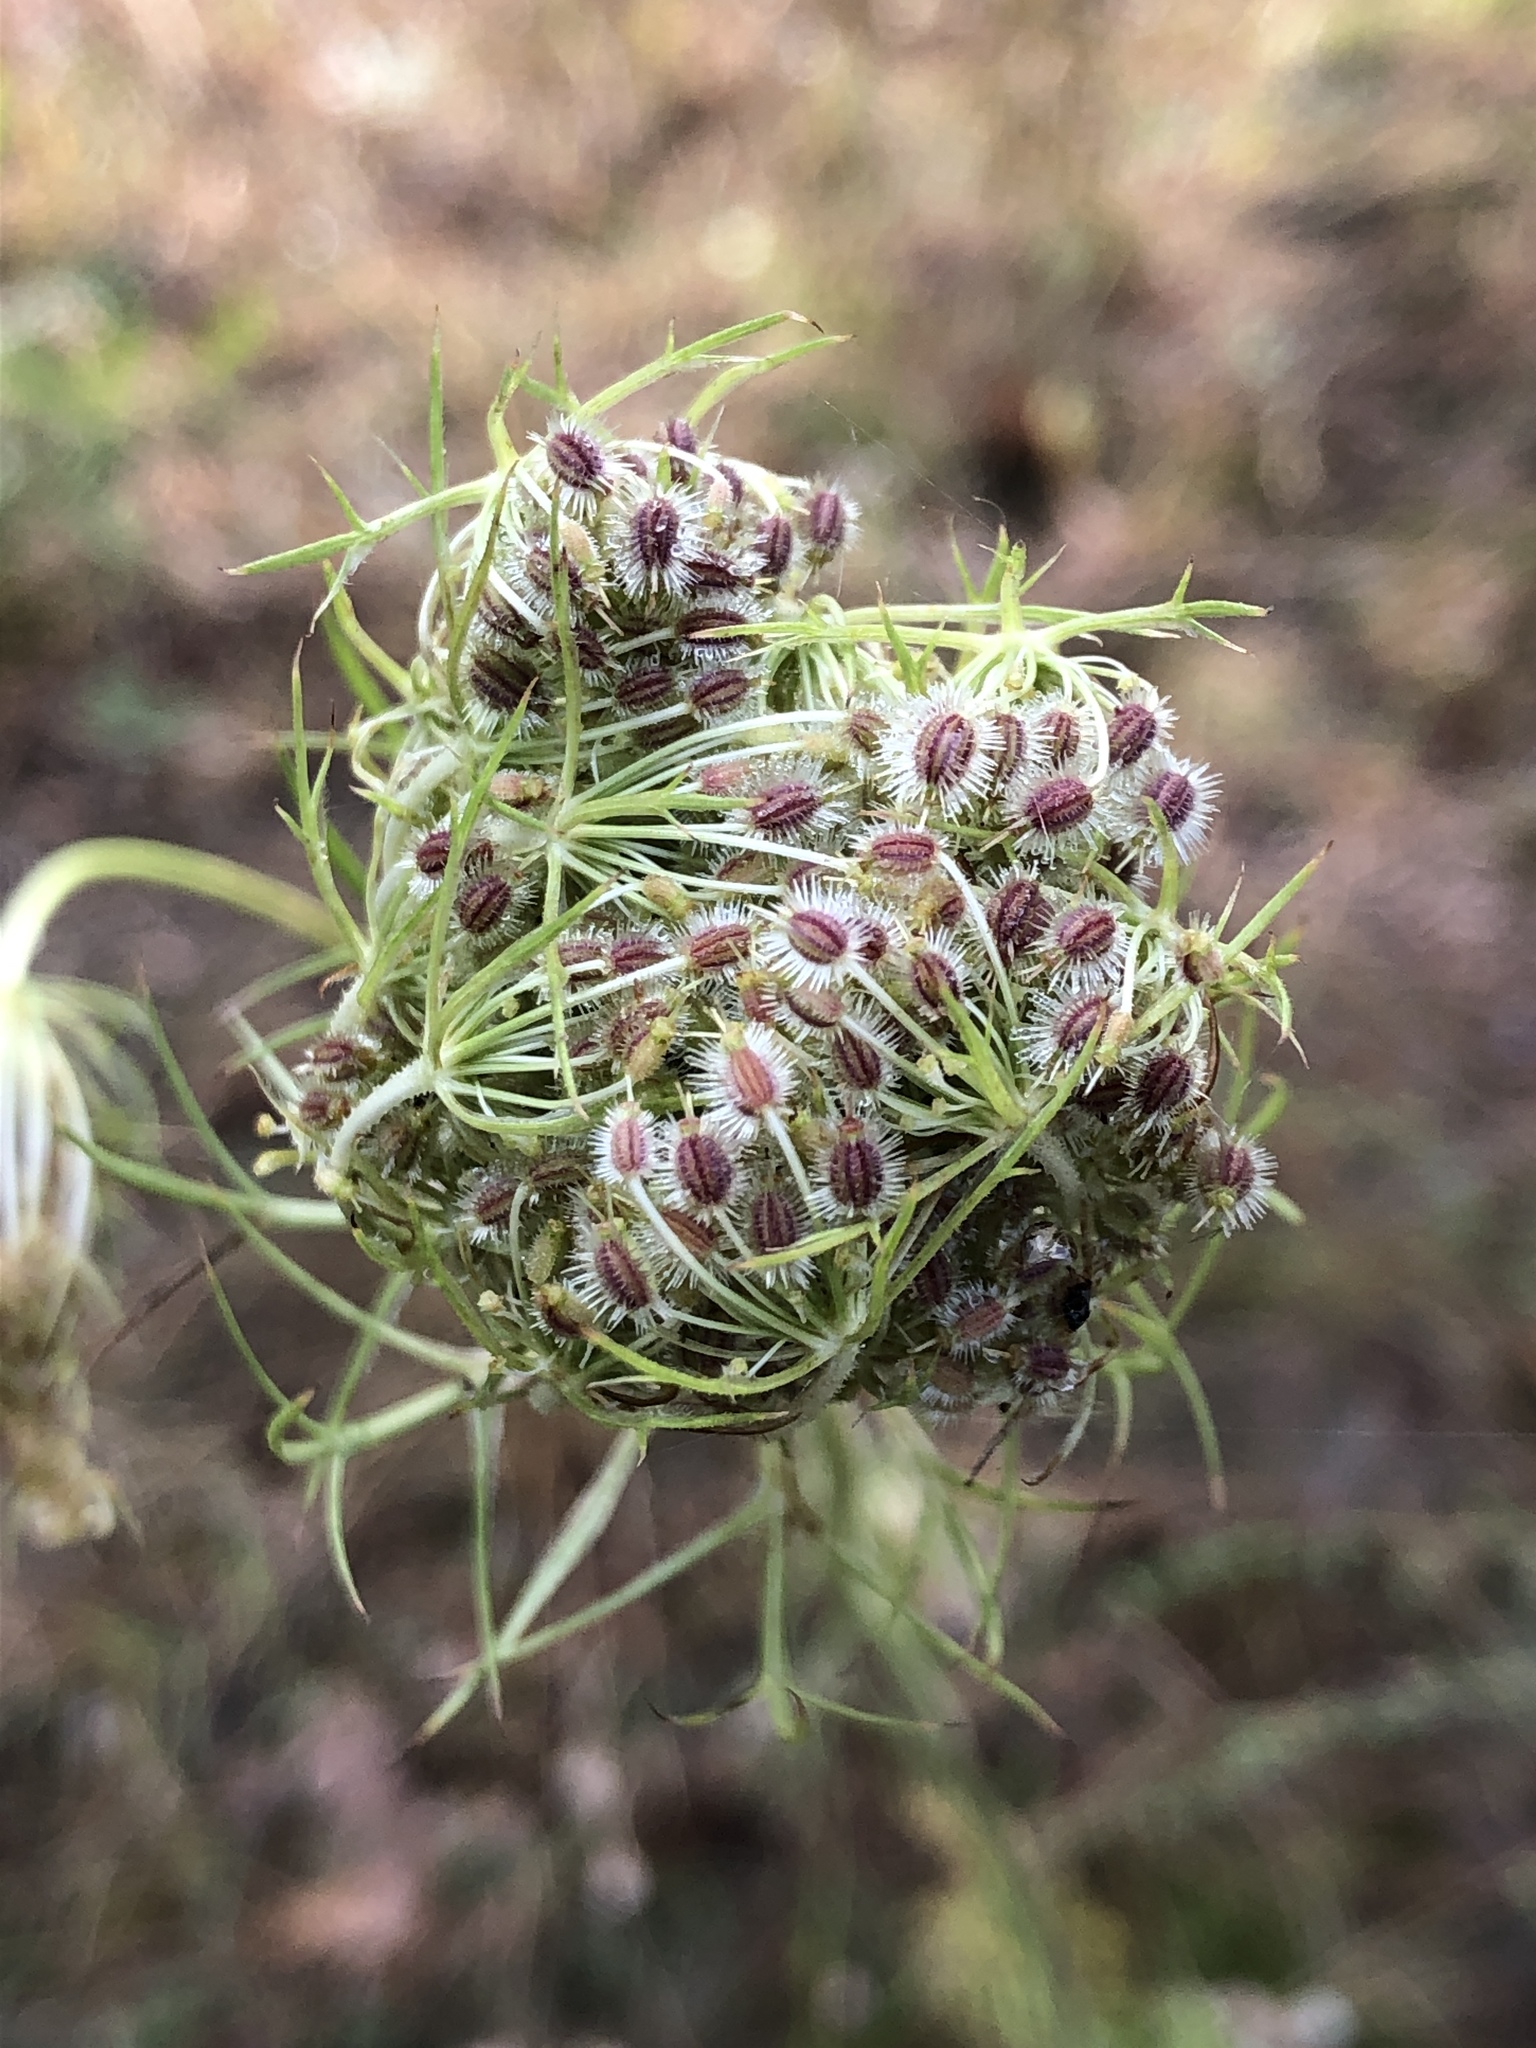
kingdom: Plantae
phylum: Tracheophyta
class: Magnoliopsida
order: Apiales
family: Apiaceae
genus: Daucus
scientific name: Daucus carota
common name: Wild carrot
